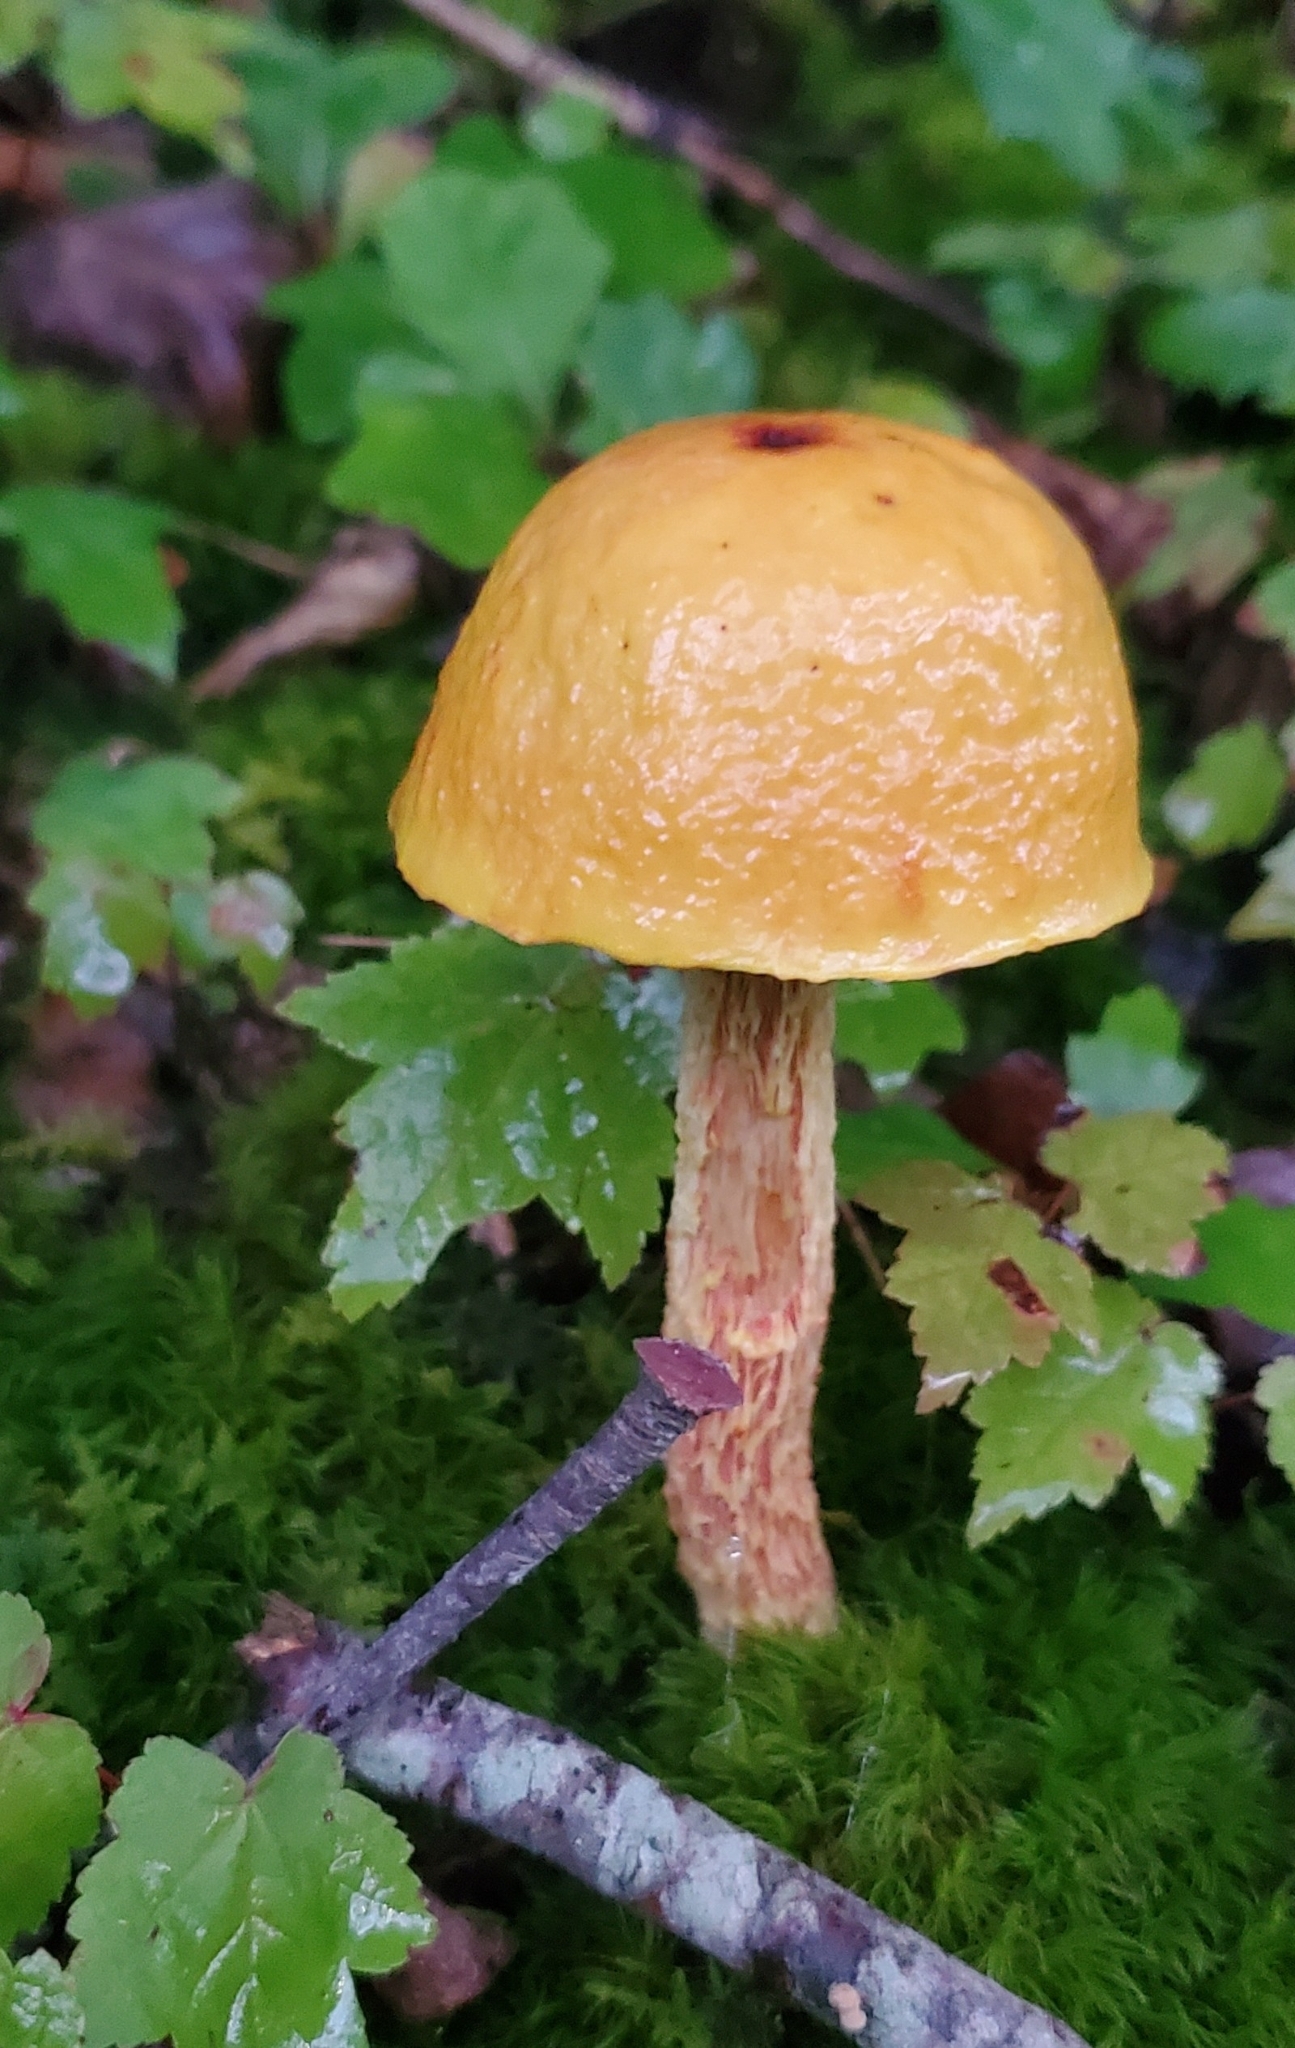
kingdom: Fungi
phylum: Basidiomycota
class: Agaricomycetes
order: Boletales
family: Boletaceae
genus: Aureoboletus
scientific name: Aureoboletus betula
